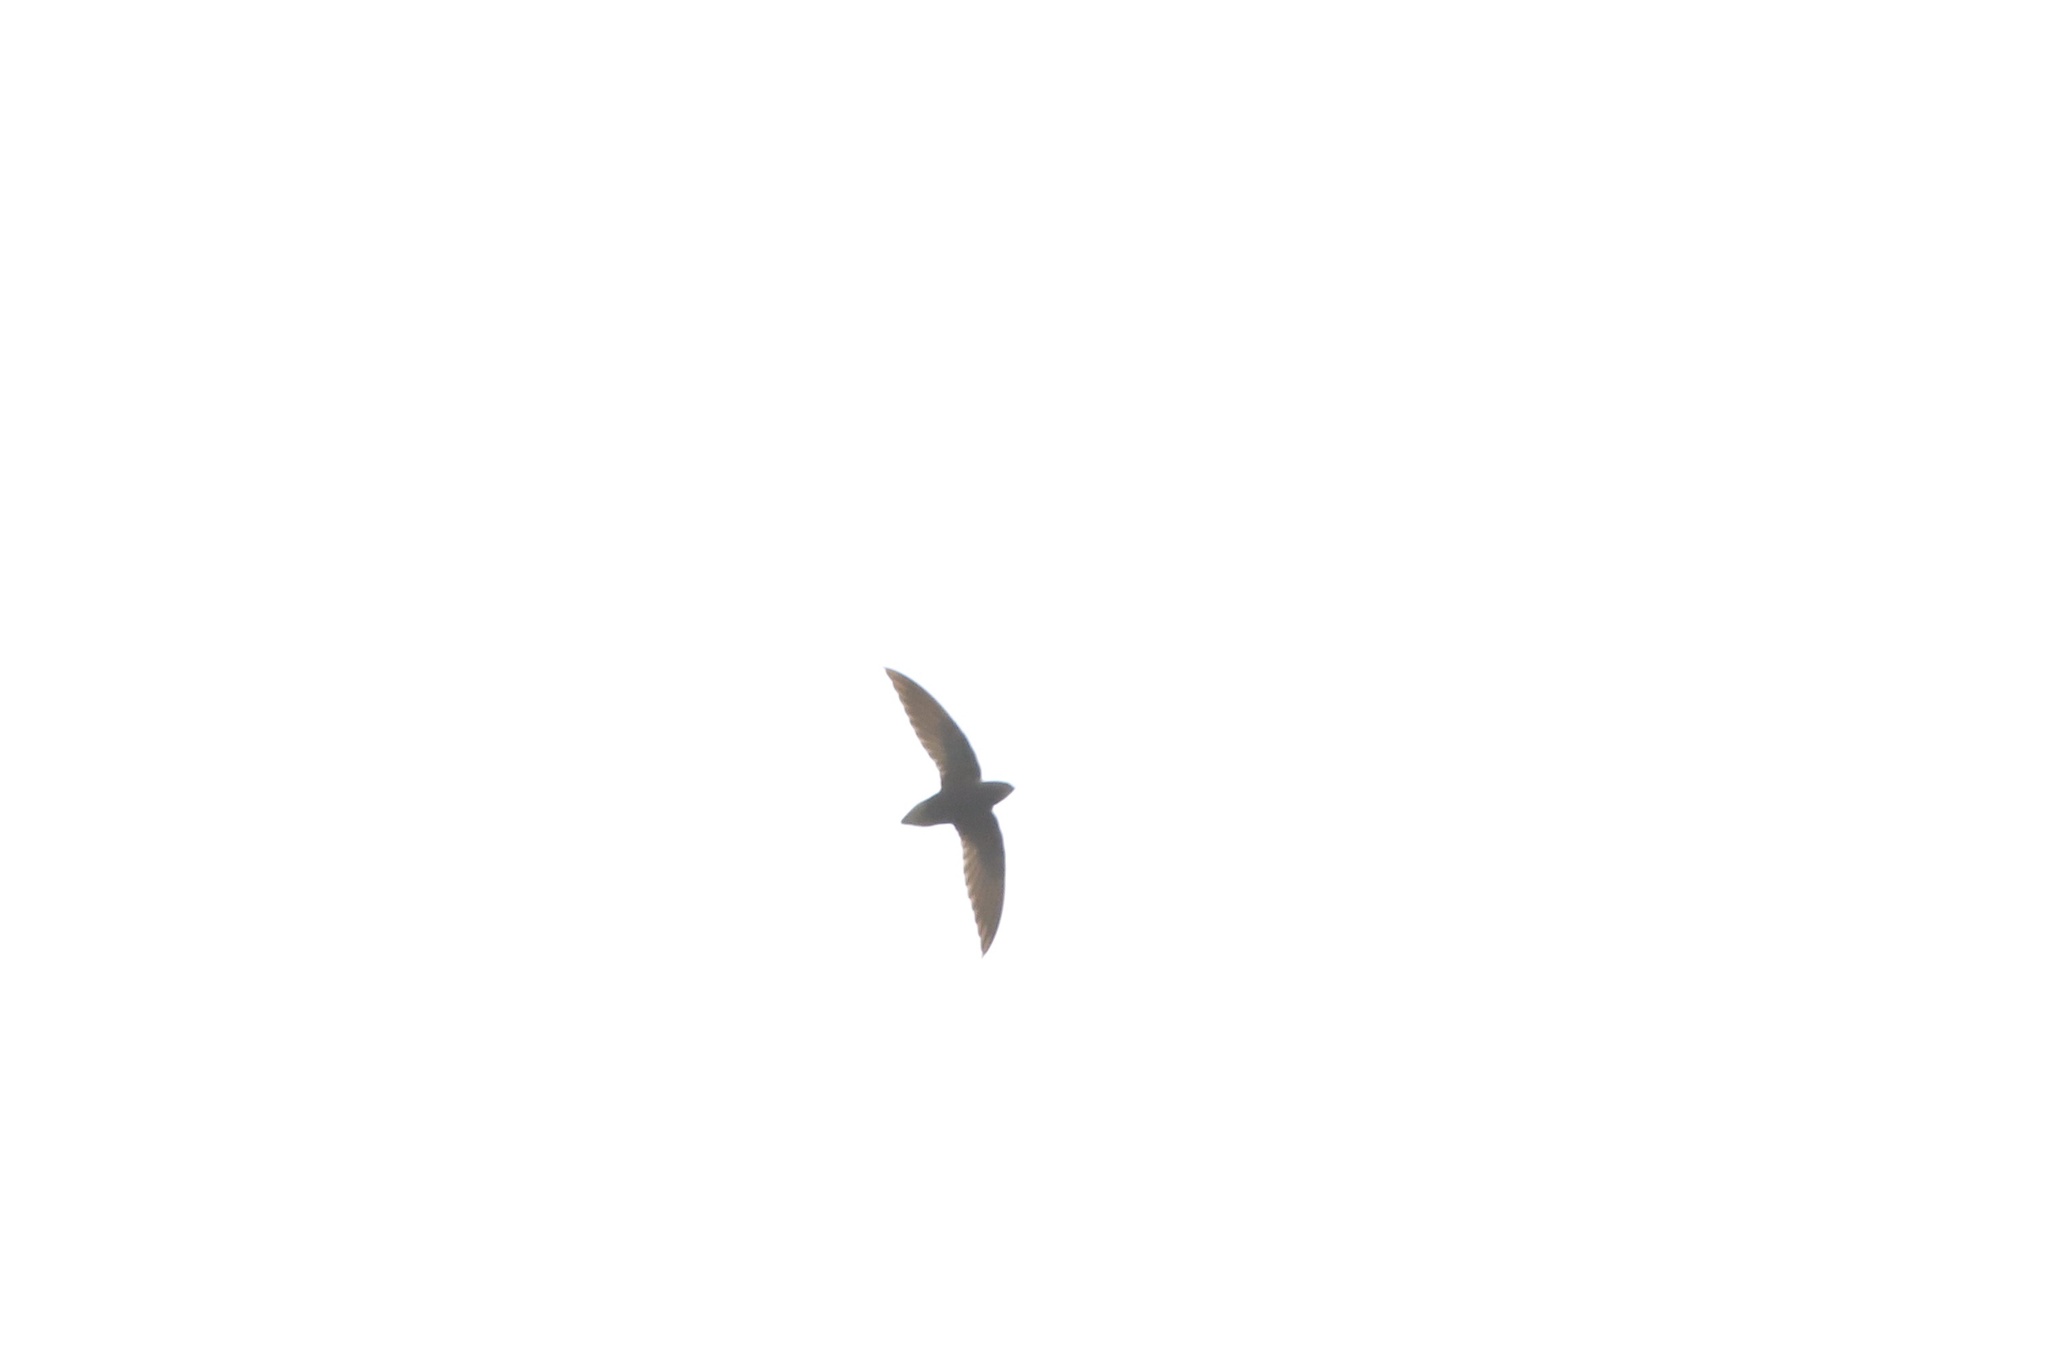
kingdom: Animalia
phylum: Chordata
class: Aves
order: Apodiformes
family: Apodidae
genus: Chaetura
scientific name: Chaetura brachyura
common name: Short-tailed swift
